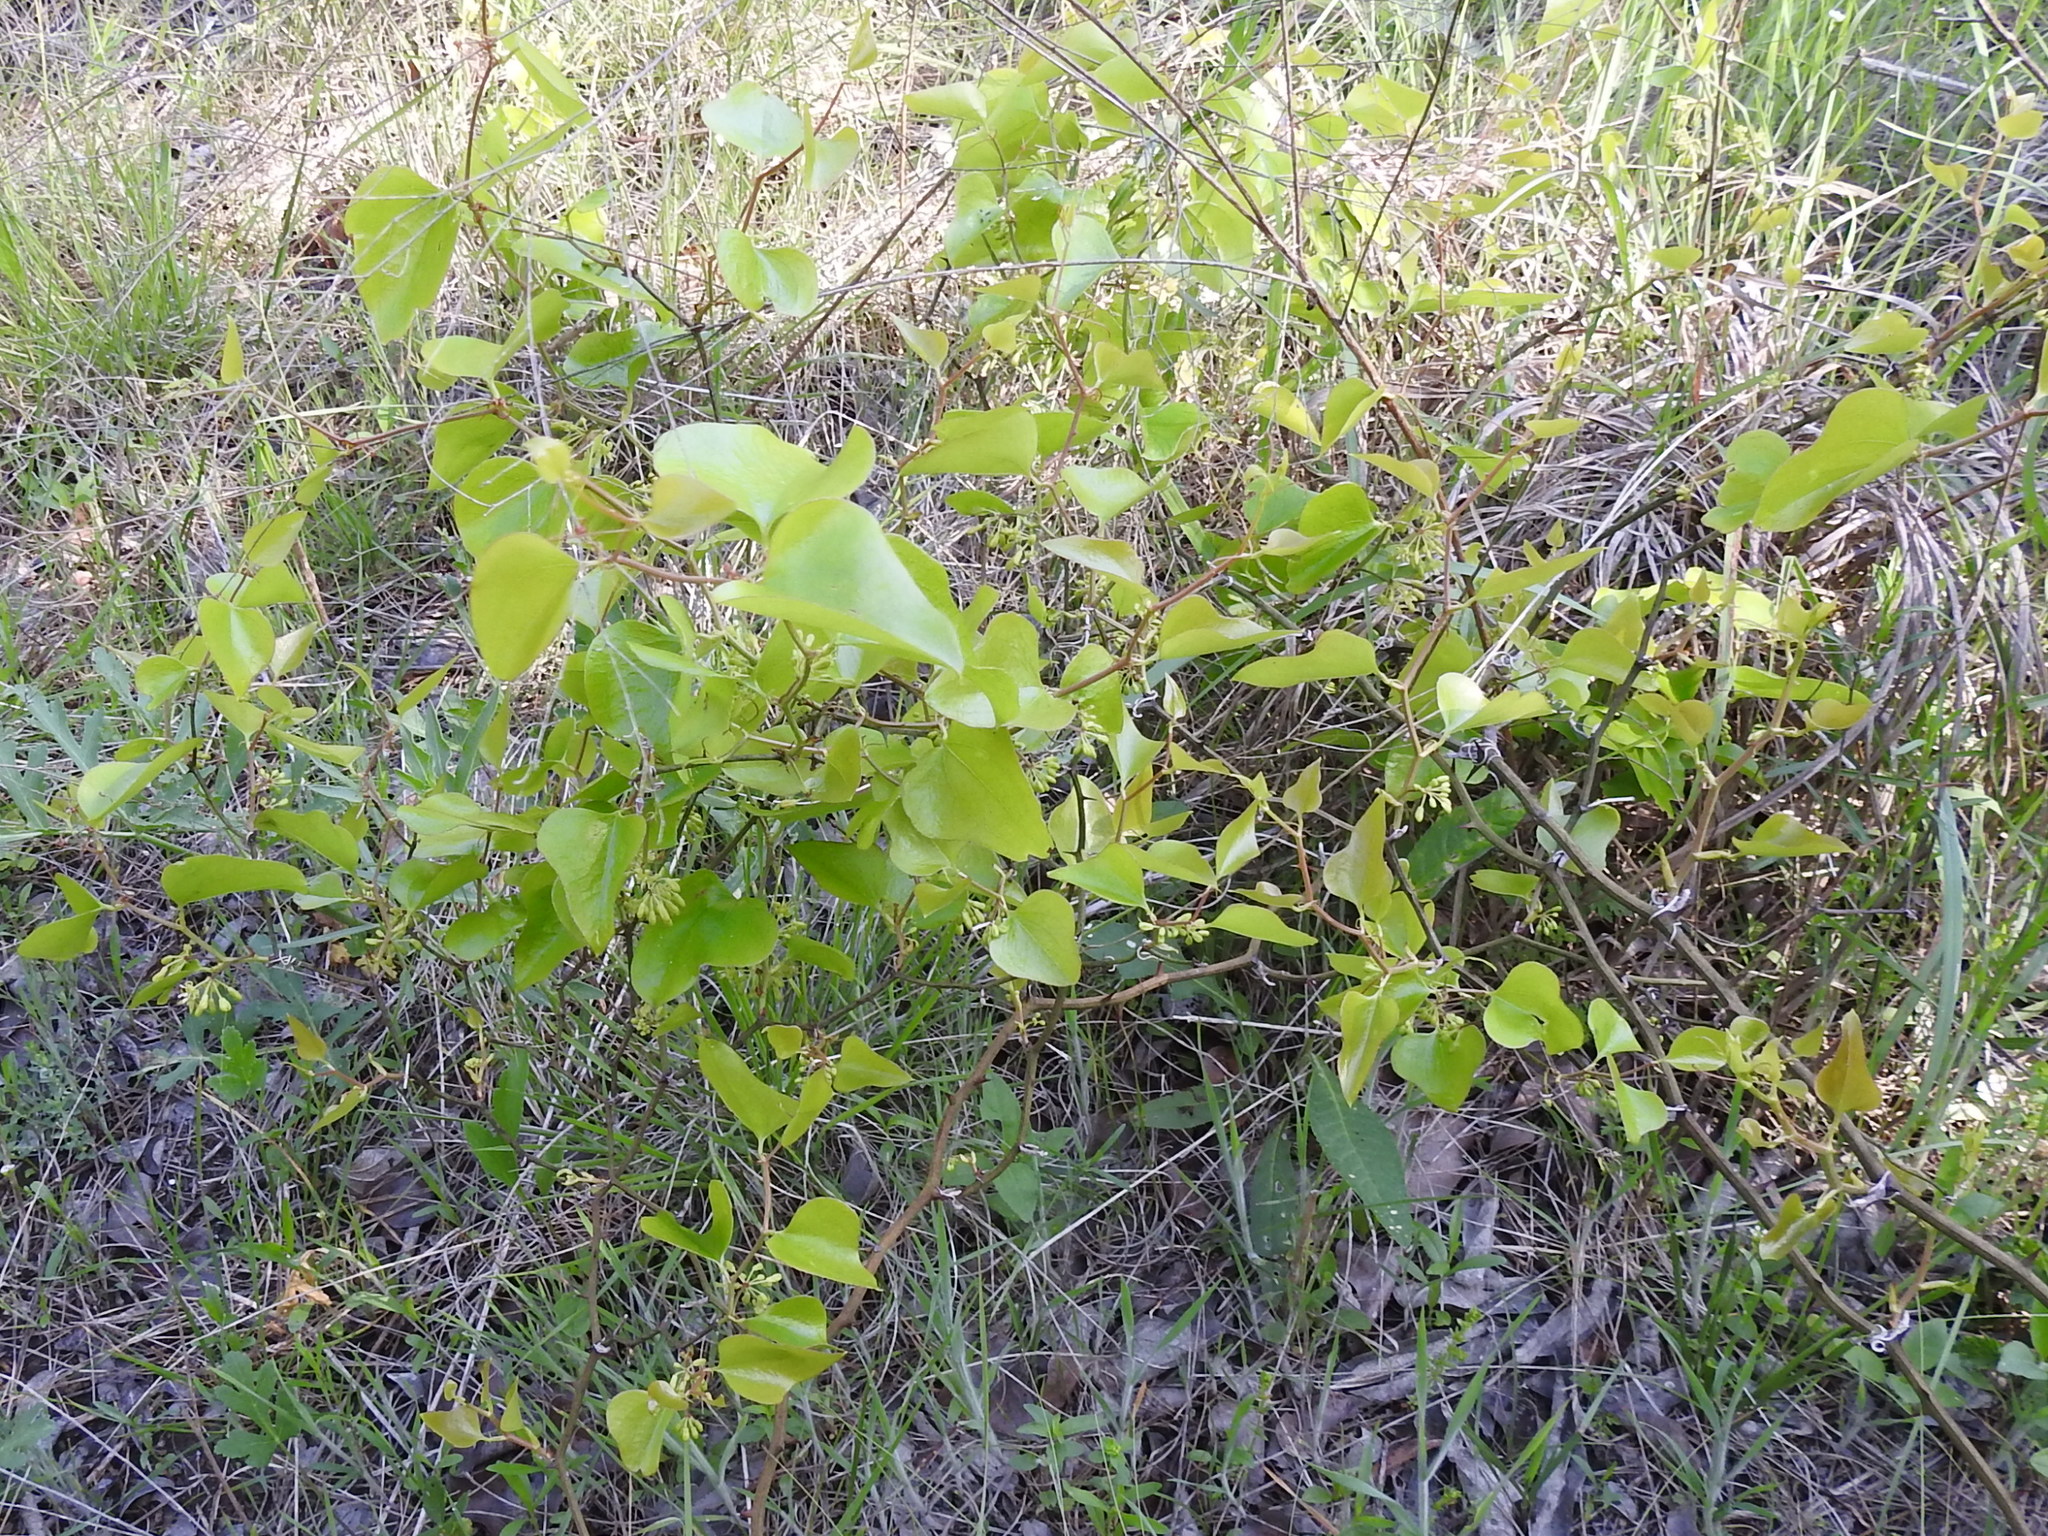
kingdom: Plantae
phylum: Tracheophyta
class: Liliopsida
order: Liliales
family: Smilacaceae
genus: Smilax
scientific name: Smilax bona-nox
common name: Catbrier
